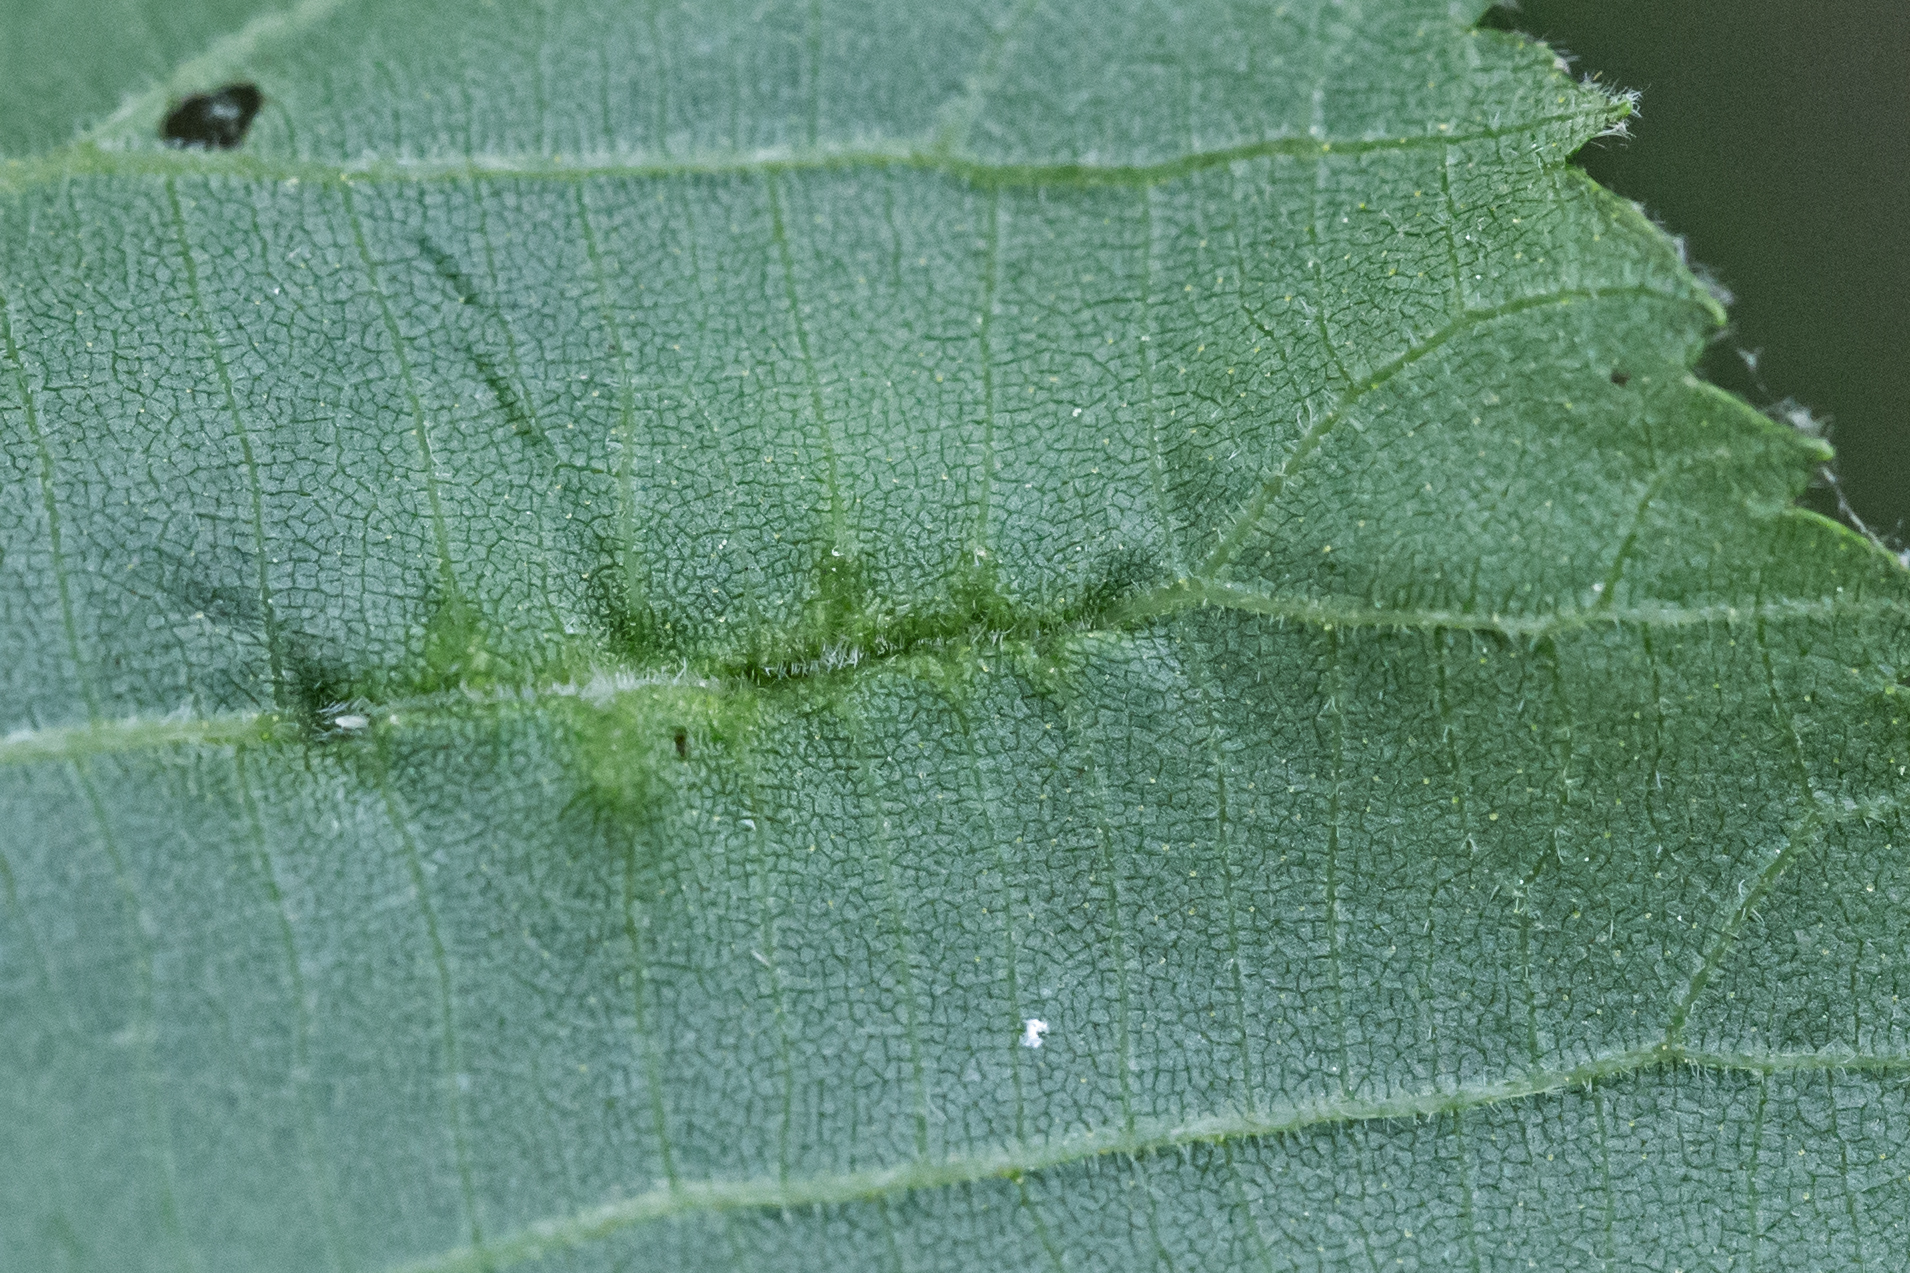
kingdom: Animalia
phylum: Arthropoda
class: Insecta
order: Hemiptera
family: Phylloxeridae
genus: Phylloxera
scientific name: Phylloxera caryaevenae
